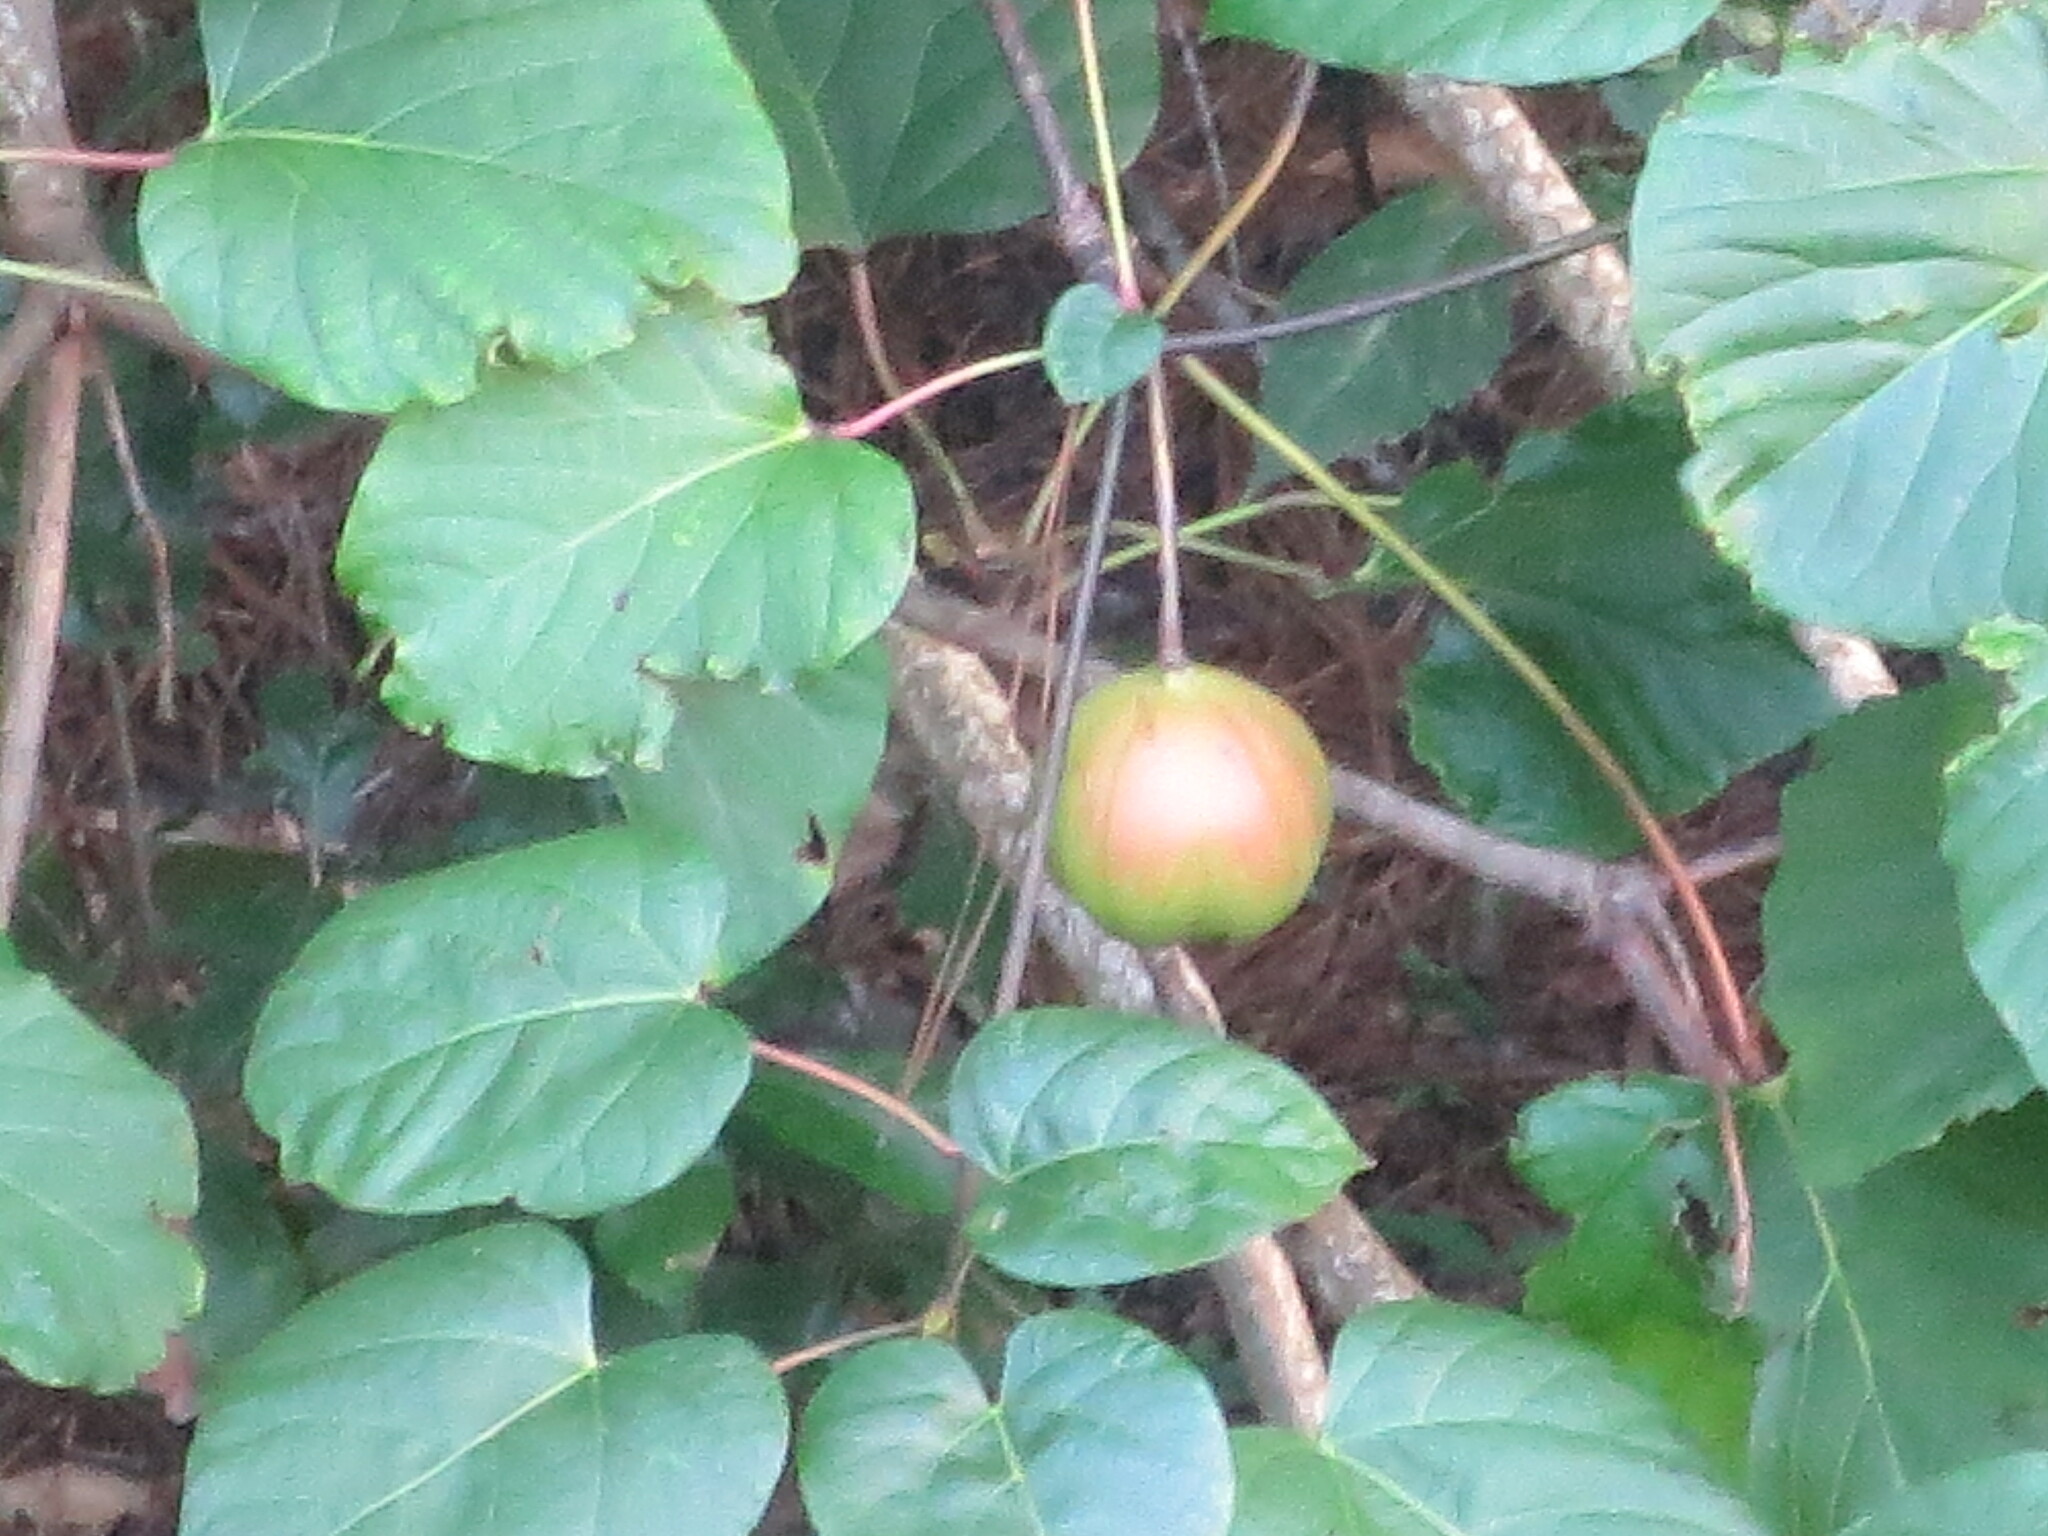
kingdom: Plantae
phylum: Tracheophyta
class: Magnoliopsida
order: Malpighiales
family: Euphorbiaceae
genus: Vernicia
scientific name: Vernicia fordii
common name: Tungoil tree
